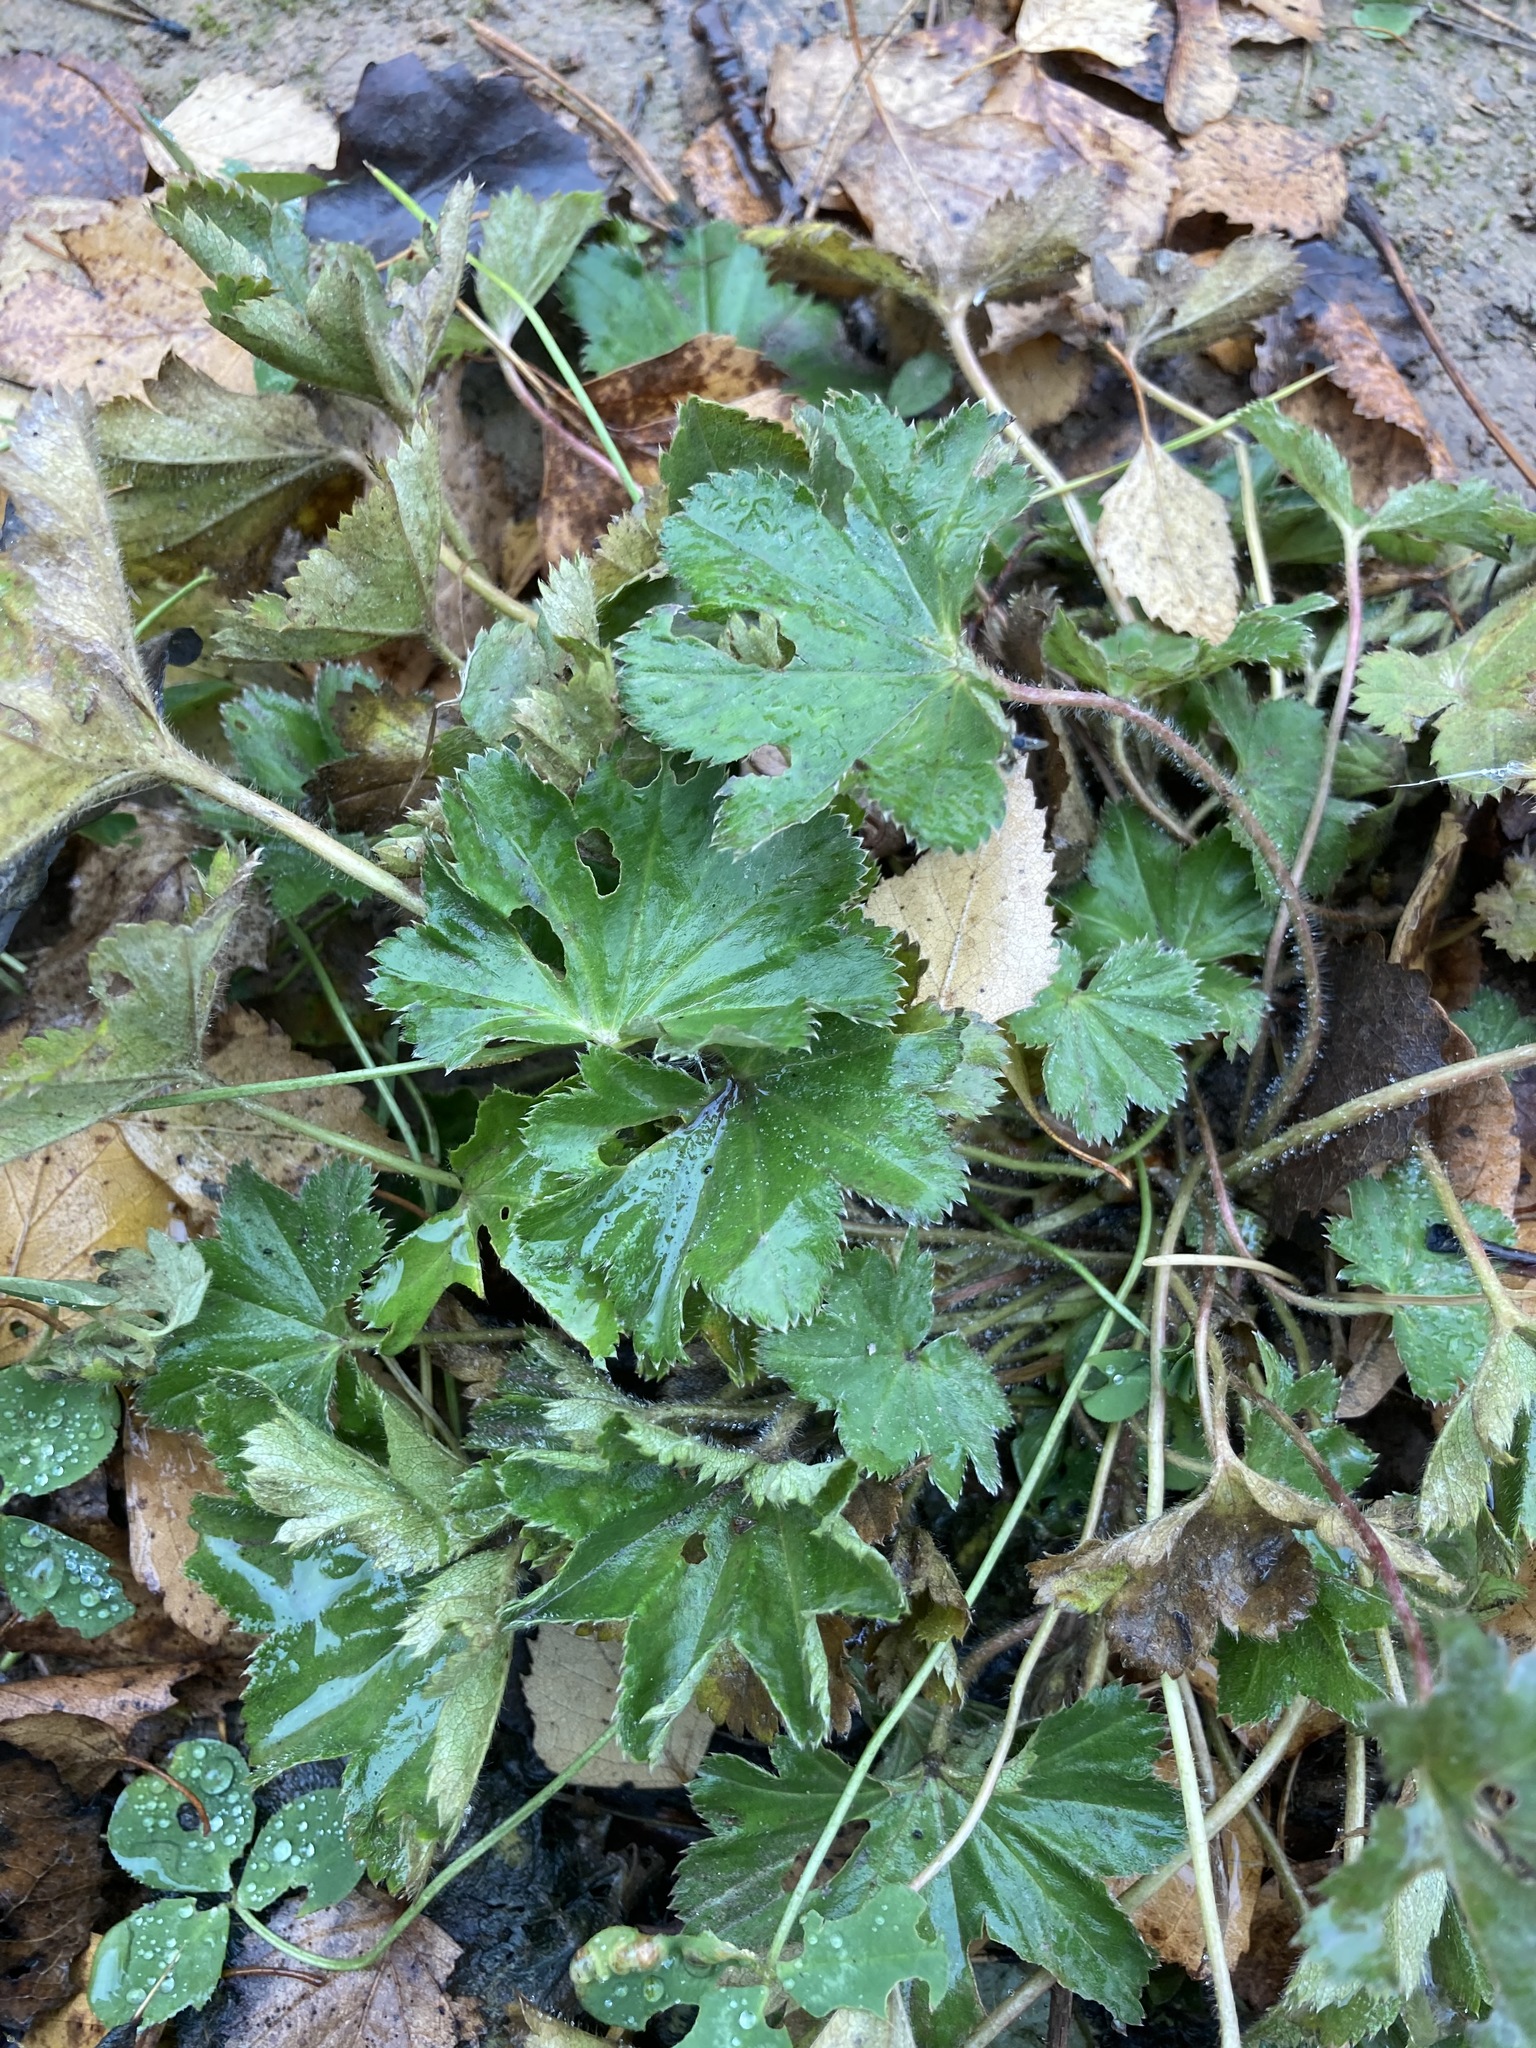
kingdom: Plantae
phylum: Tracheophyta
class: Magnoliopsida
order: Rosales
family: Rosaceae
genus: Alchemilla
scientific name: Alchemilla
